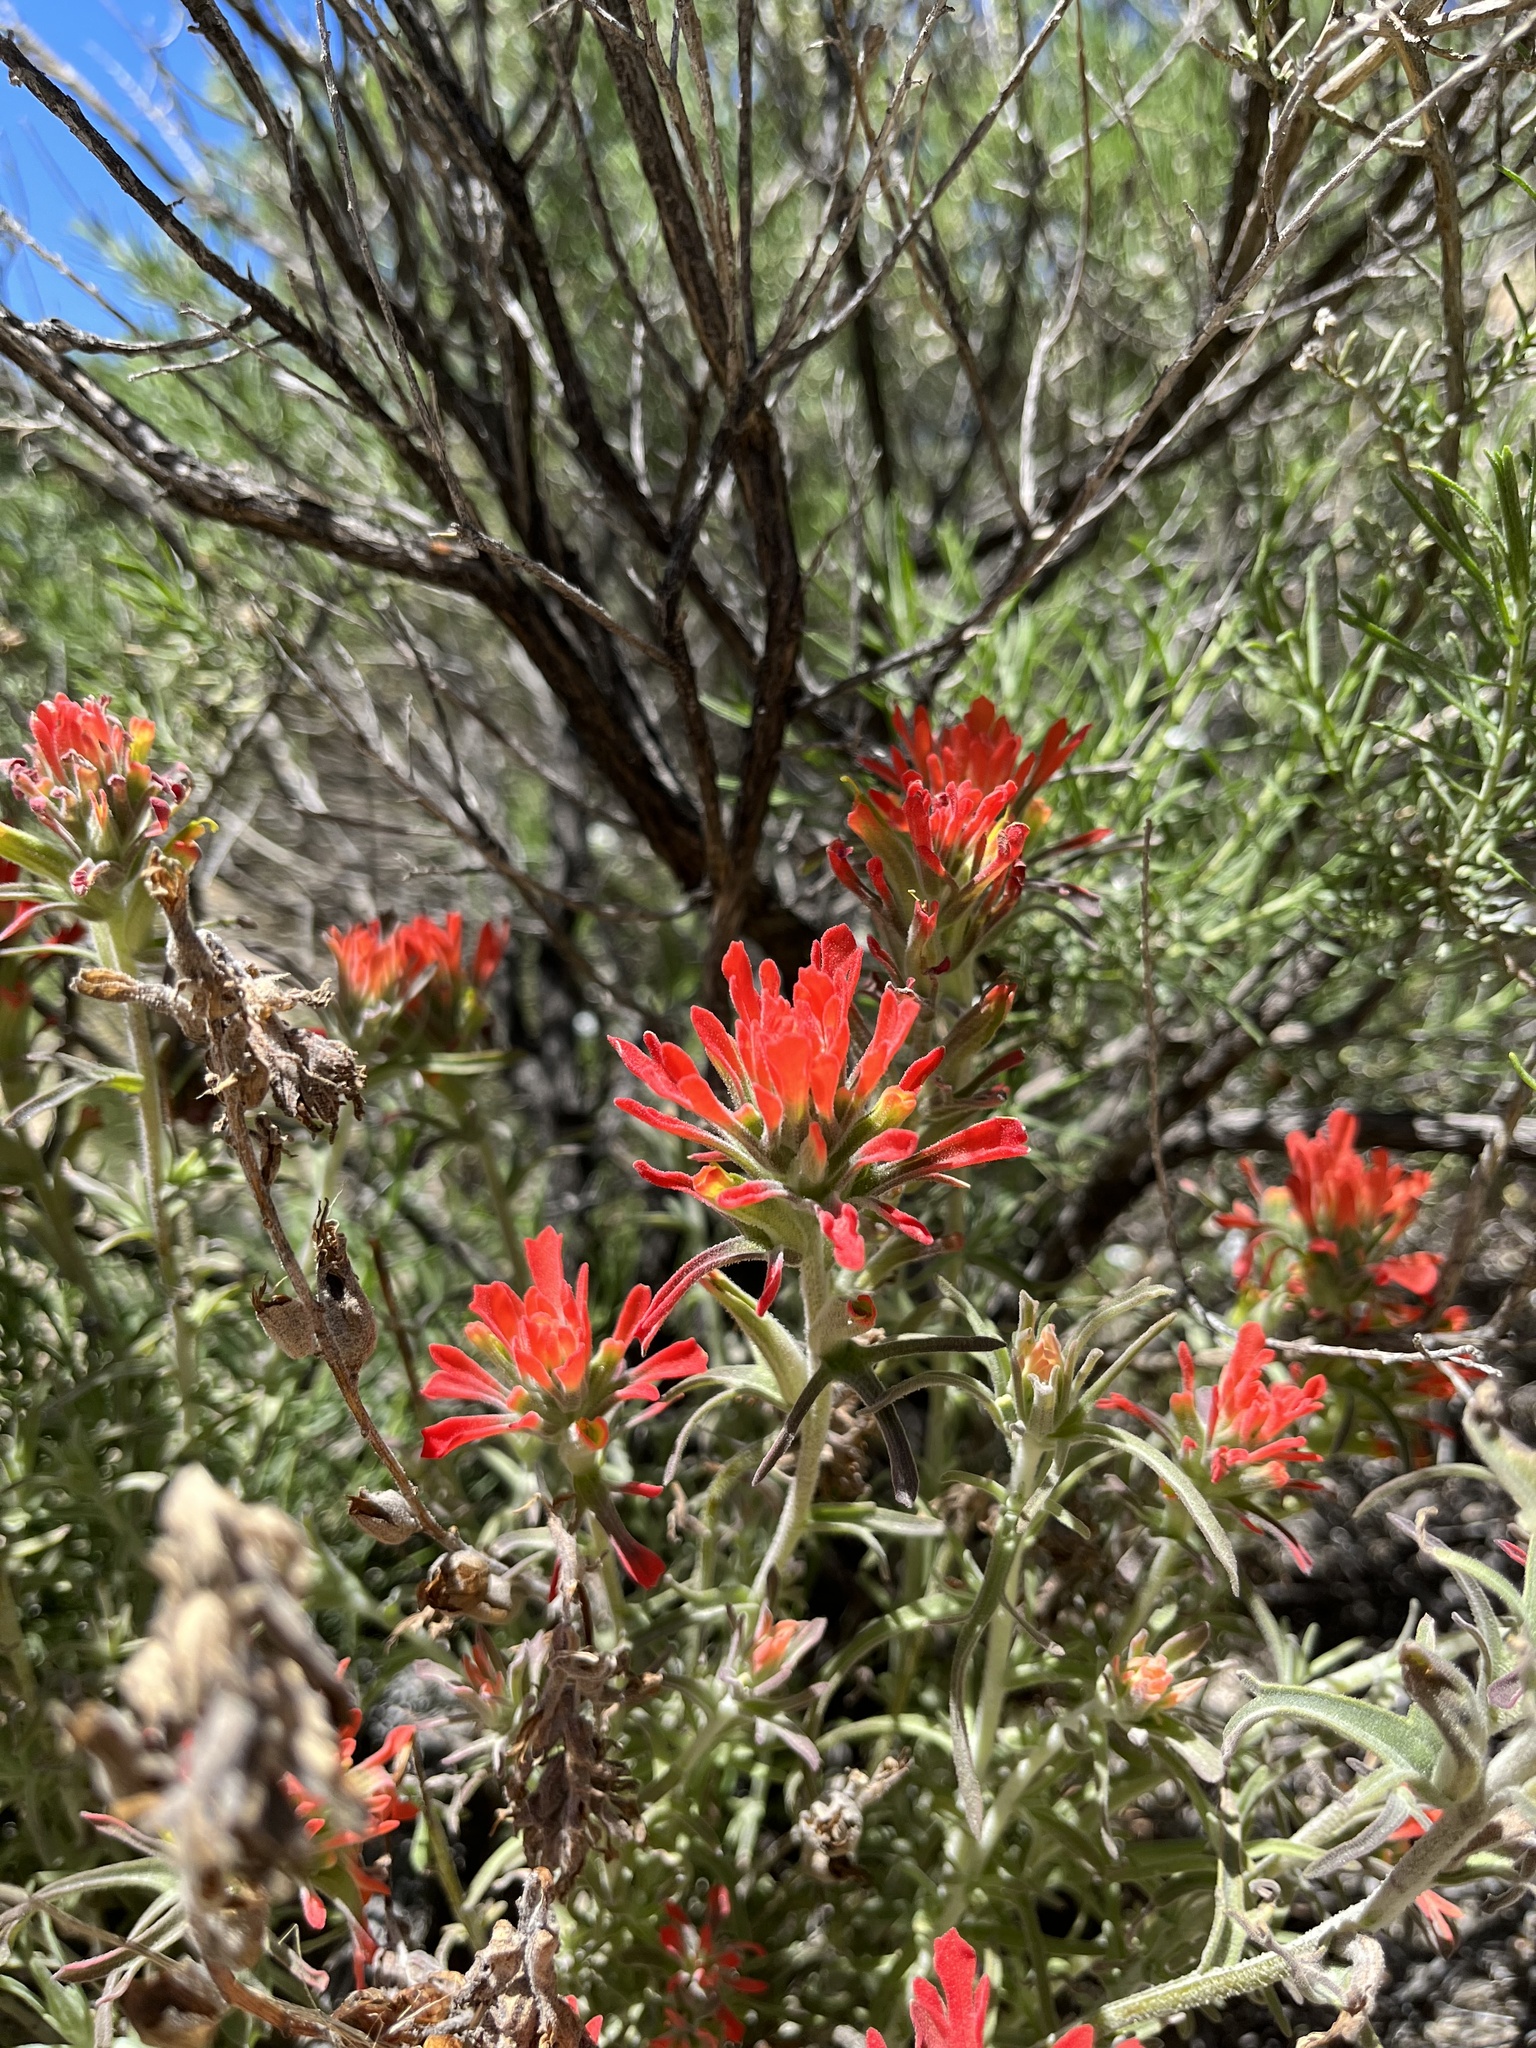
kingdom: Plantae
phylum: Tracheophyta
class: Magnoliopsida
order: Lamiales
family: Orobanchaceae
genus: Castilleja
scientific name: Castilleja foliolosa
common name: Woolly indian paintbrush
